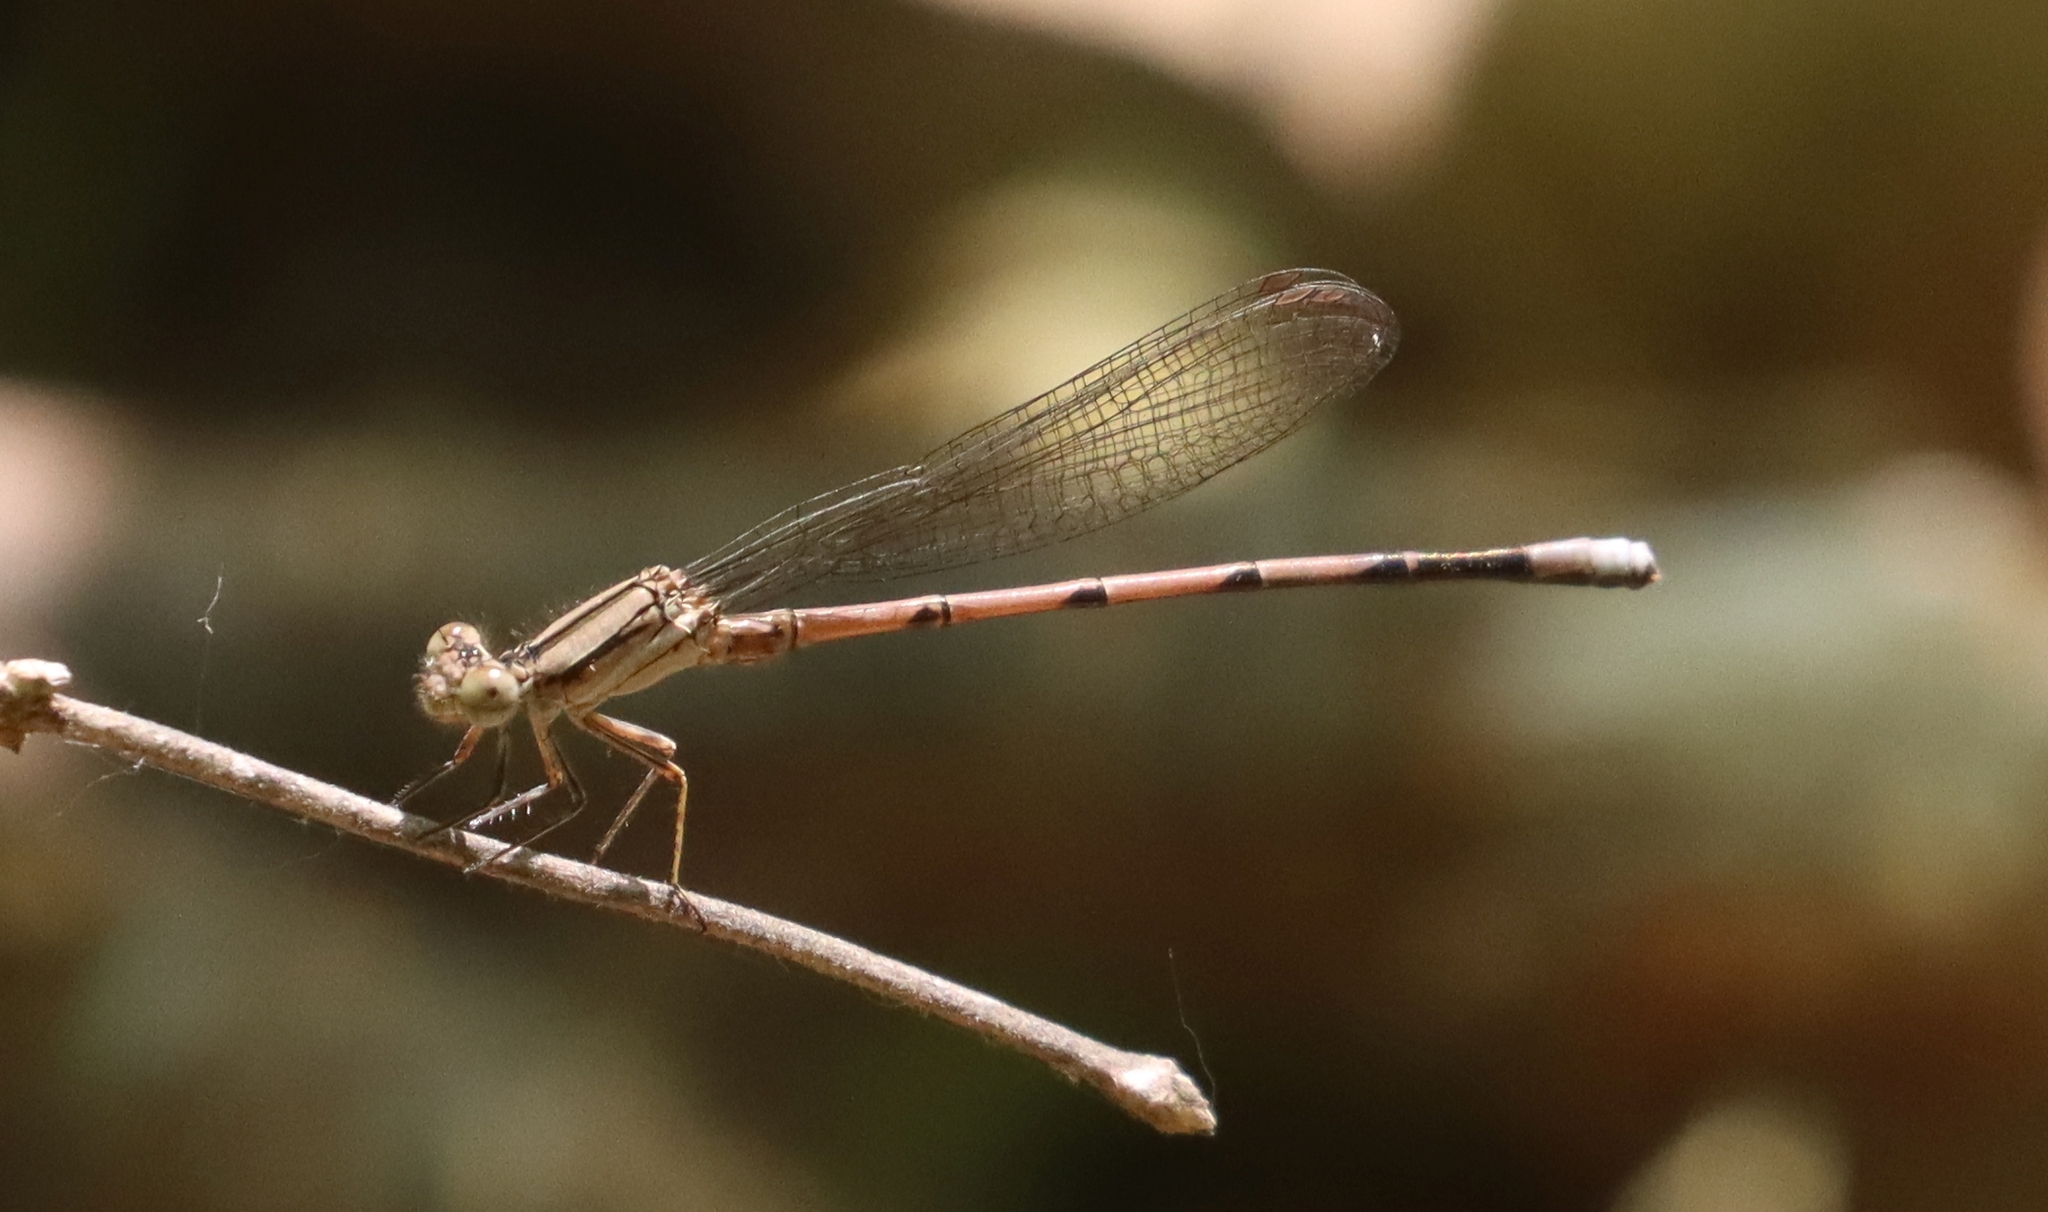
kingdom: Animalia
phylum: Arthropoda
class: Insecta
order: Odonata
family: Coenagrionidae
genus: Argia
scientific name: Argia fumipennis
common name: Variable dancer
